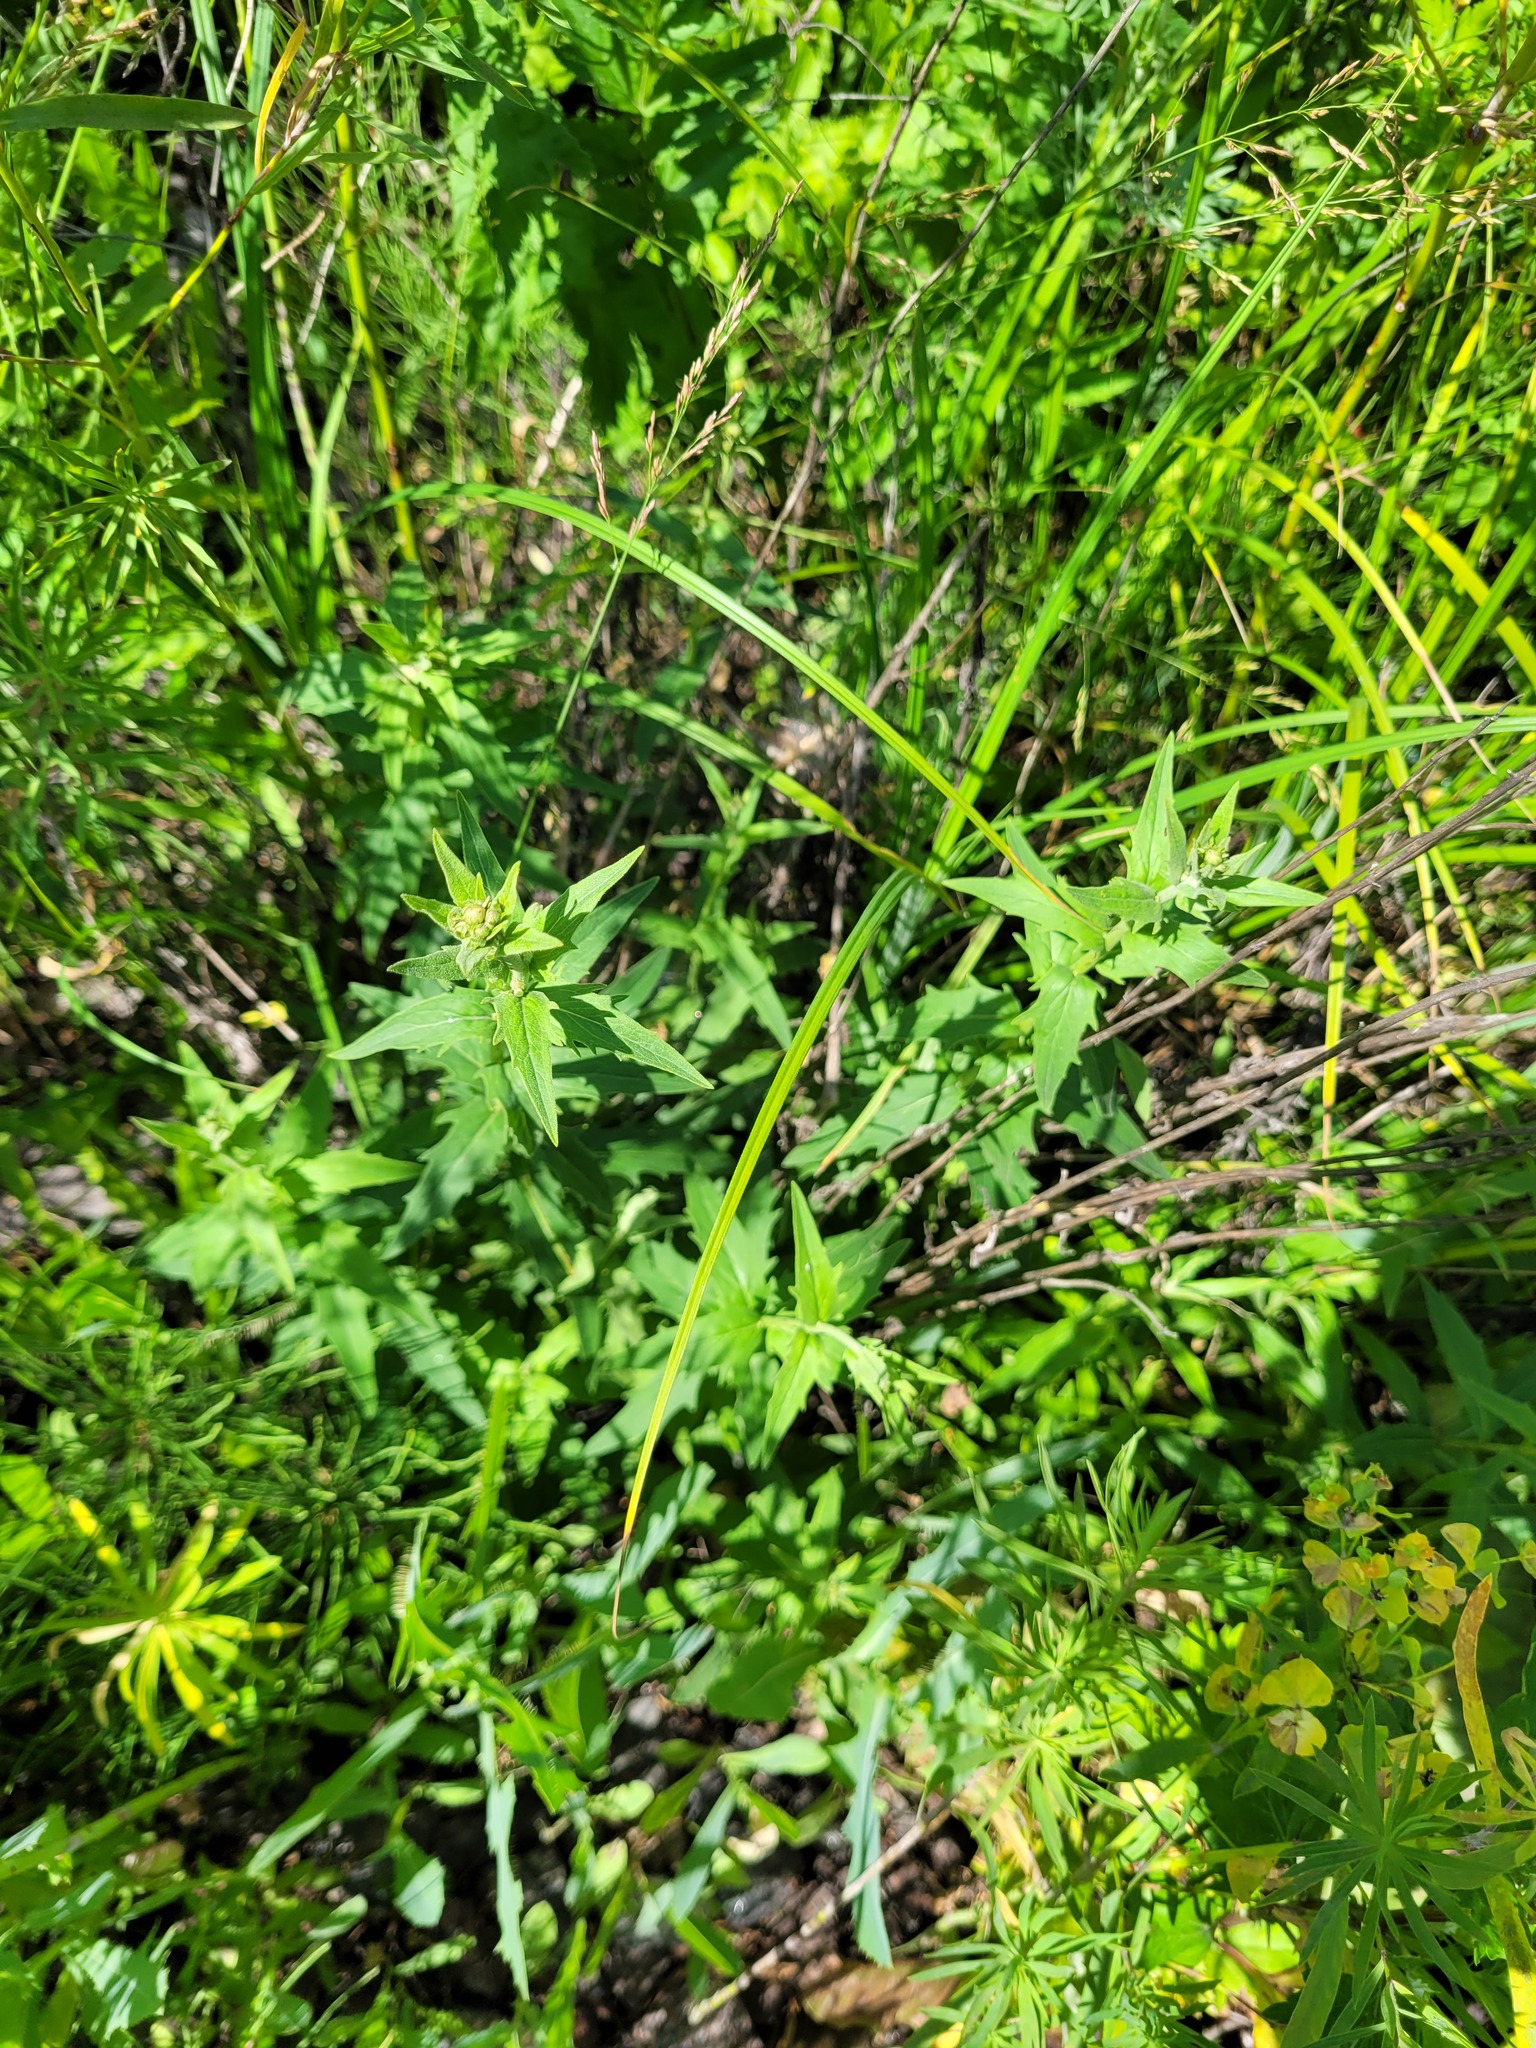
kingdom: Plantae
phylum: Tracheophyta
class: Magnoliopsida
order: Asterales
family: Asteraceae
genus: Hieracium
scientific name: Hieracium umbellatum
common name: Northern hawkweed
